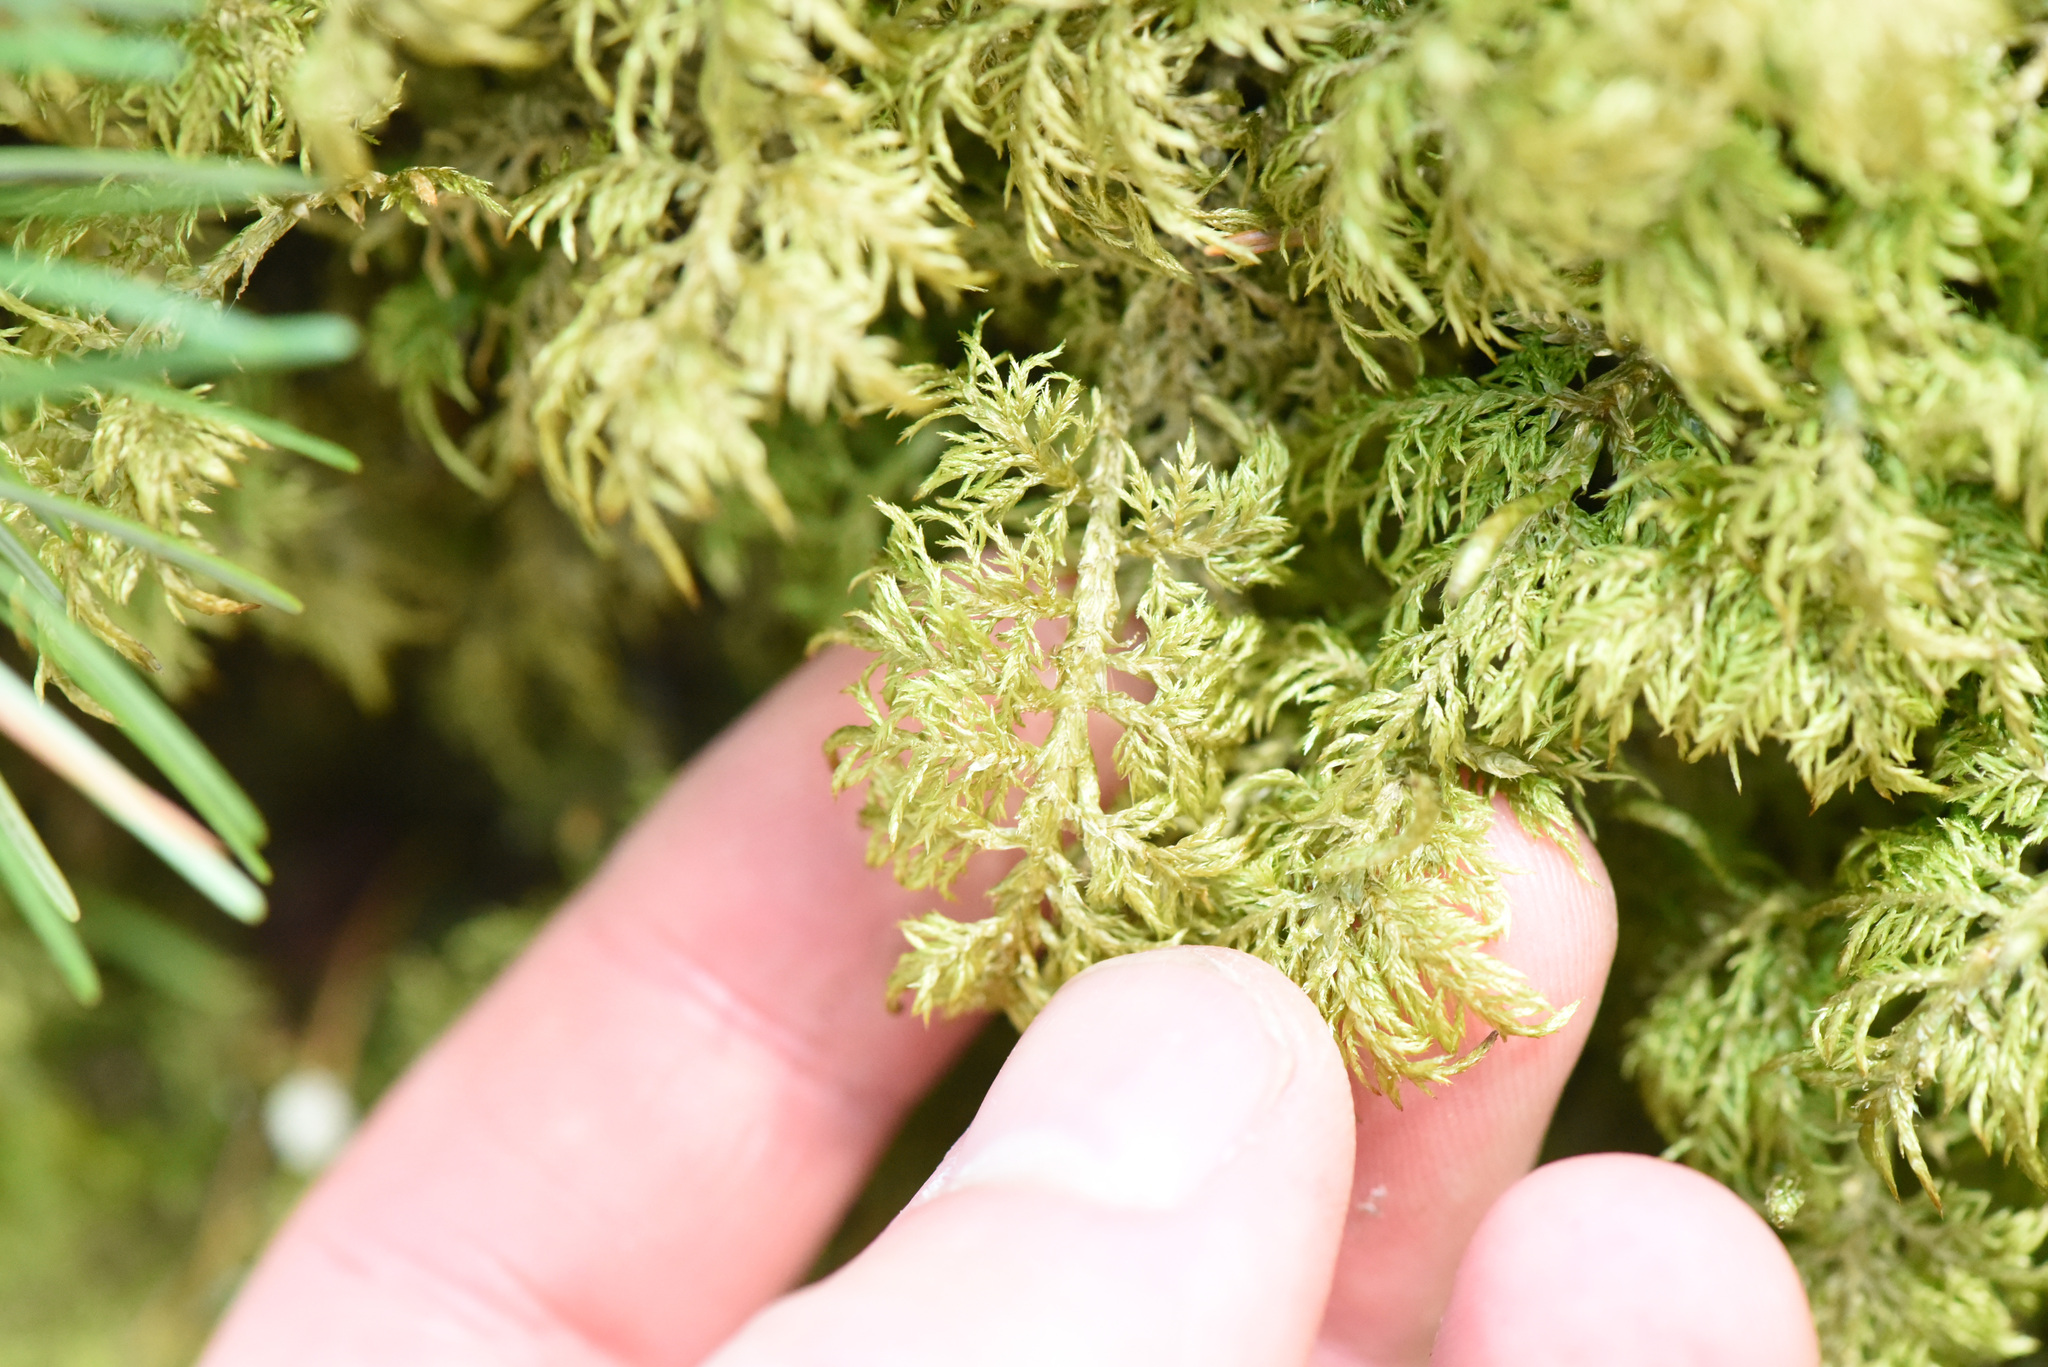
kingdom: Plantae
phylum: Bryophyta
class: Bryopsida
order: Hypnales
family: Hylocomiaceae
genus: Hylocomium
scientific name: Hylocomium splendens
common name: Stairstep moss
